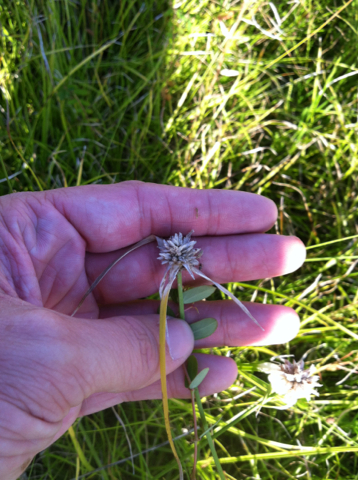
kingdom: Plantae
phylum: Tracheophyta
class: Liliopsida
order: Poales
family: Cyperaceae
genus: Rhynchospora
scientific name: Rhynchospora colorata
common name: Star sedge
